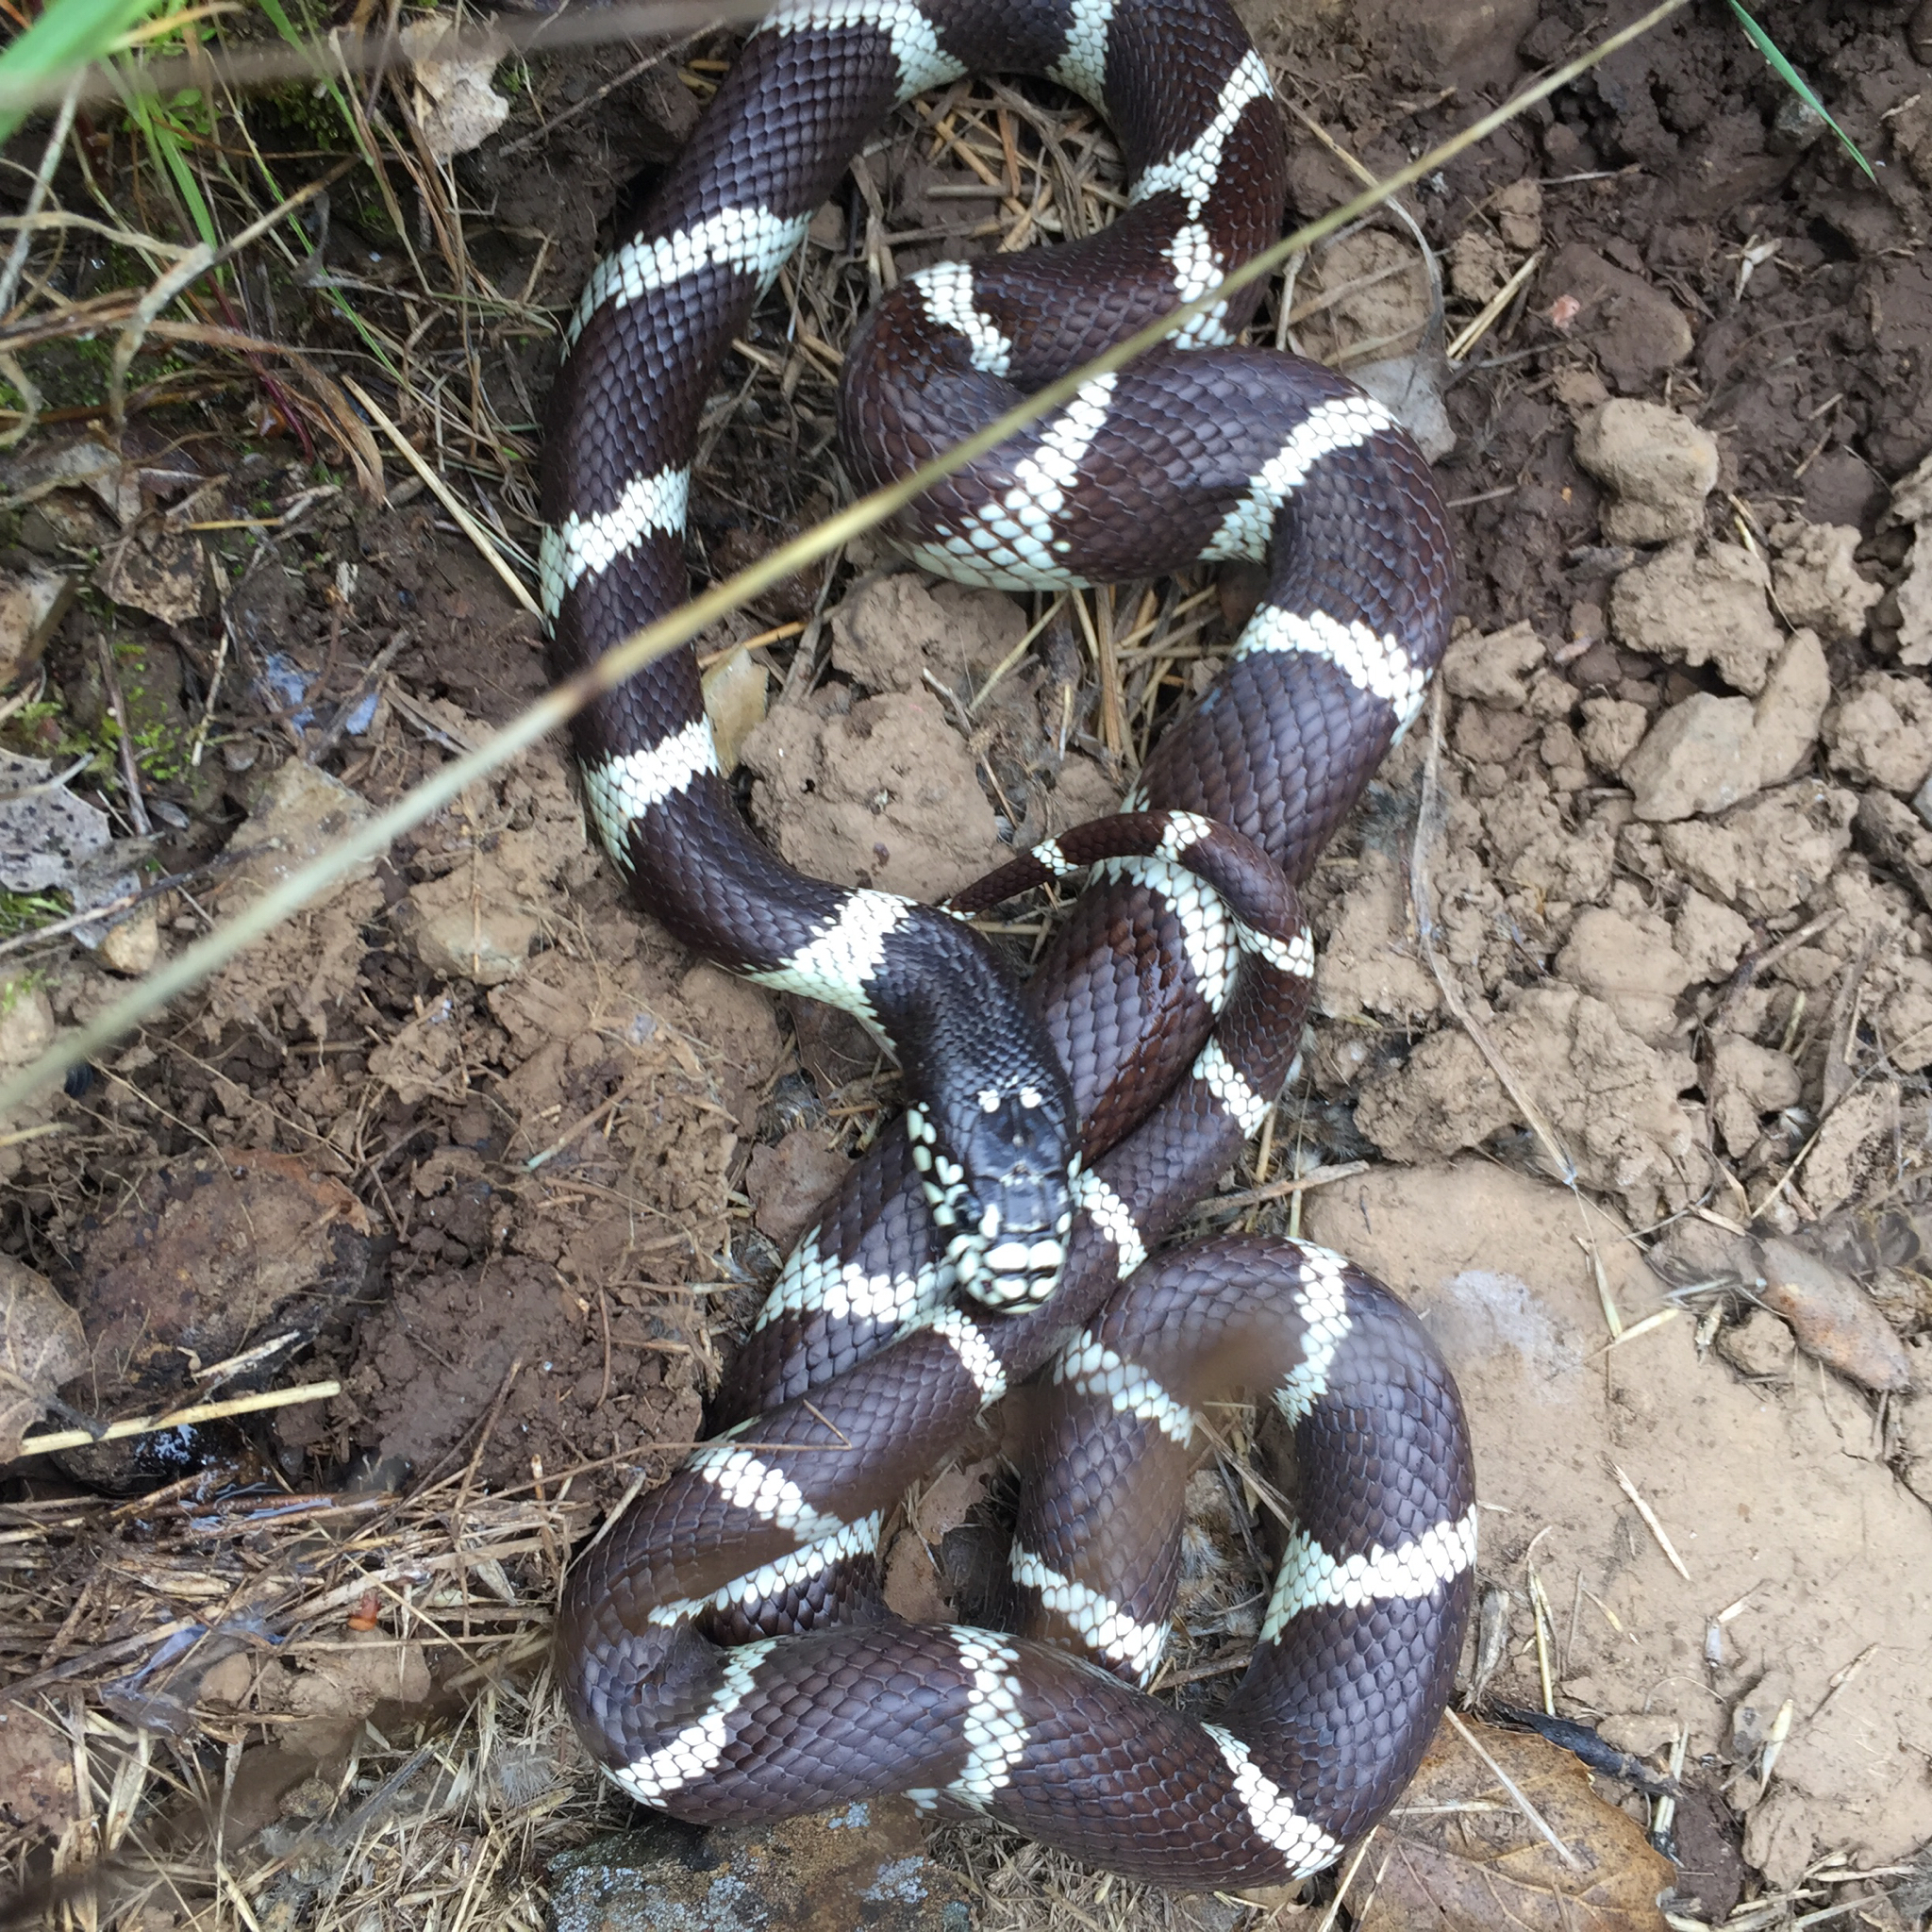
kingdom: Animalia
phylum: Chordata
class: Squamata
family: Colubridae
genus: Lampropeltis
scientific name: Lampropeltis californiae
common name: California kingsnake
